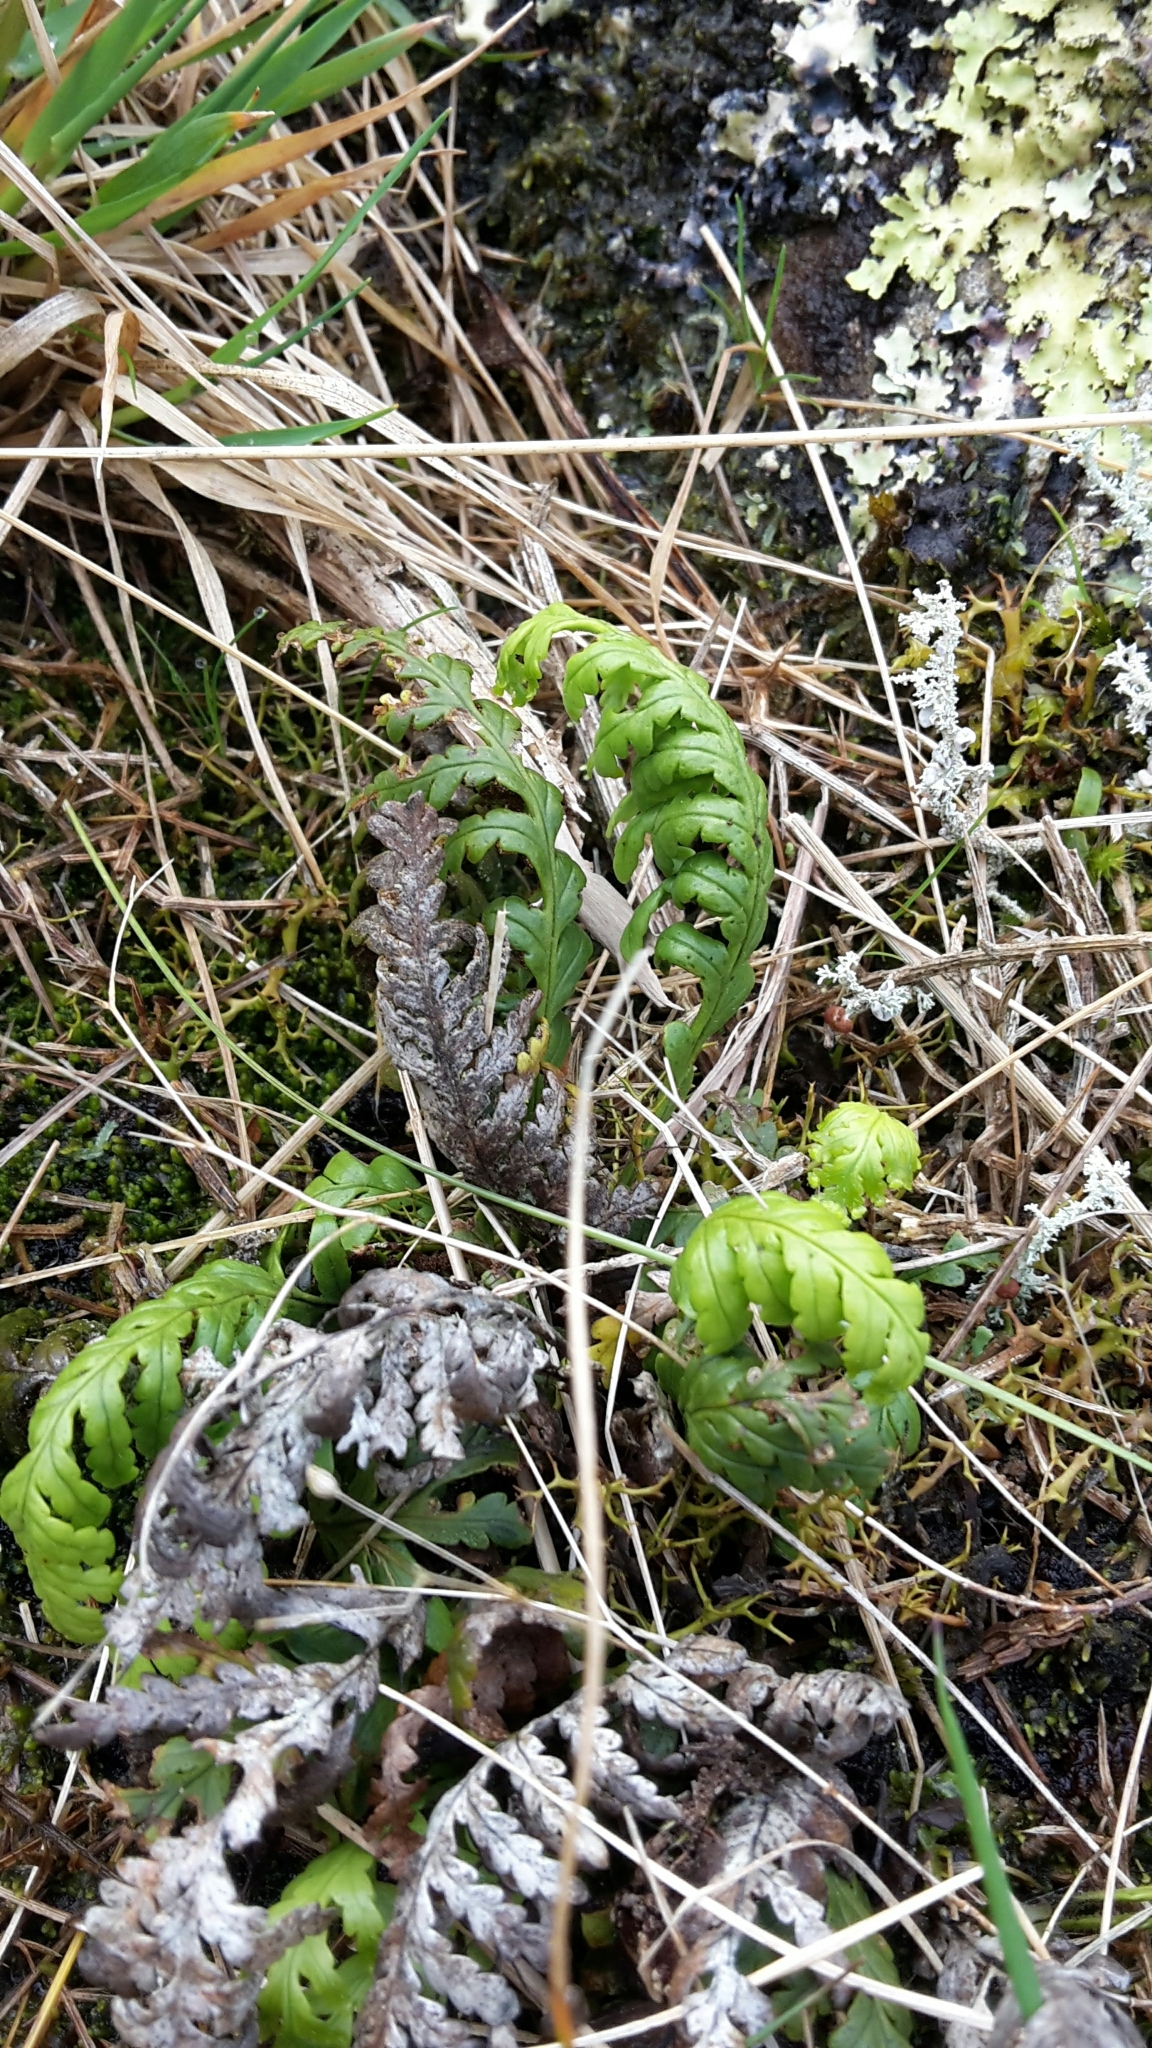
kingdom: Plantae
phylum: Tracheophyta
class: Polypodiopsida
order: Polypodiales
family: Polypodiaceae
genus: Notogrammitis
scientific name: Notogrammitis heterophylla
